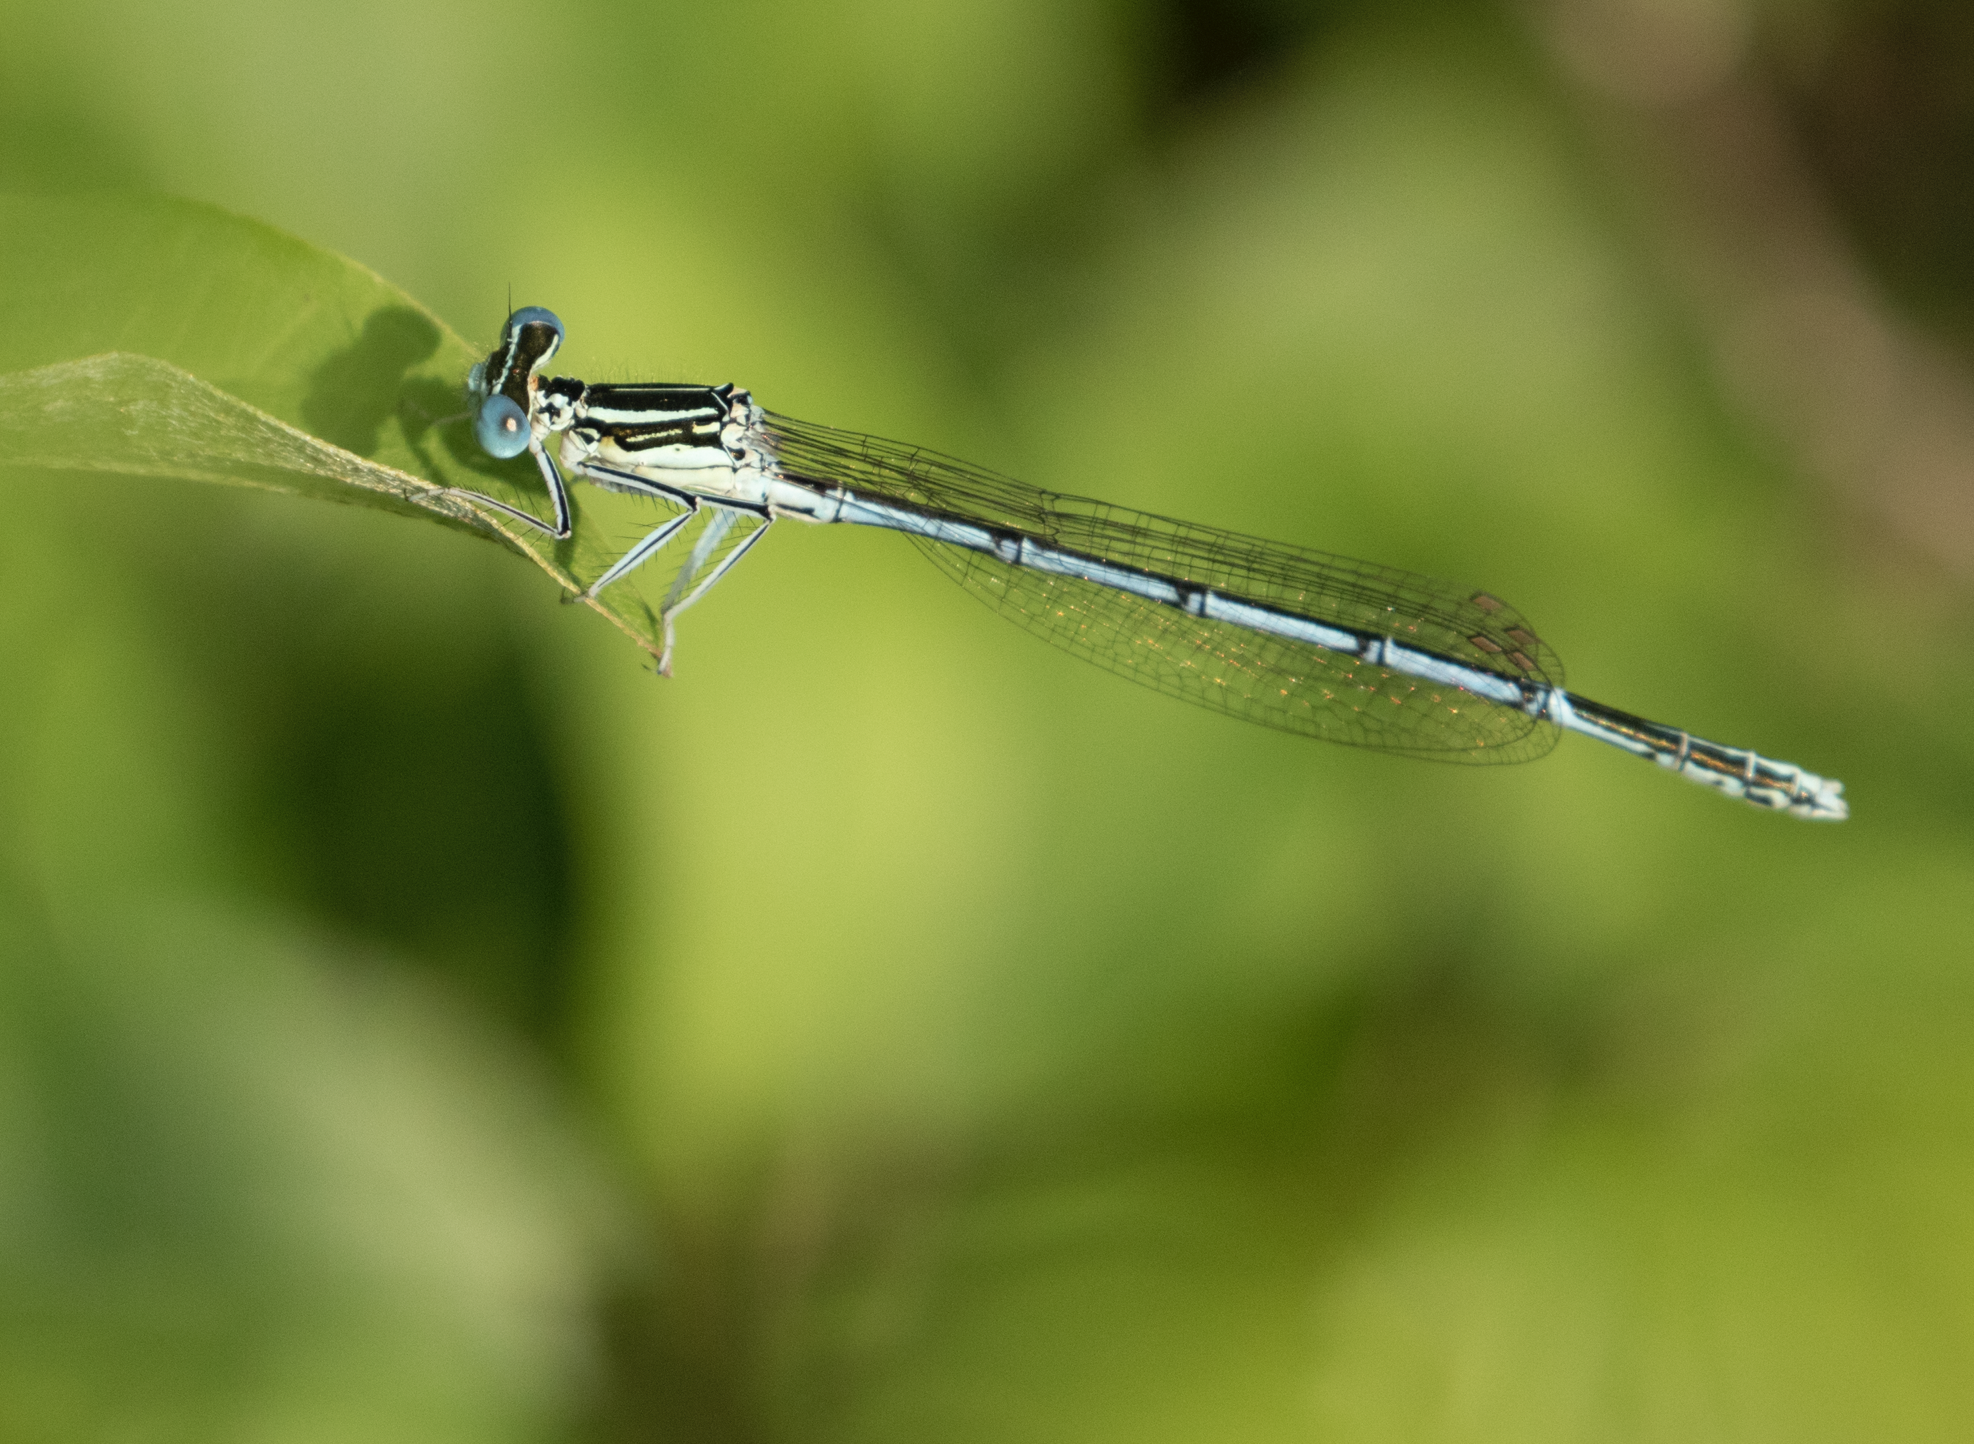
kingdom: Animalia
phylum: Arthropoda
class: Insecta
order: Odonata
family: Platycnemididae
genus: Platycnemis
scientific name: Platycnemis pennipes
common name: White-legged damselfly
